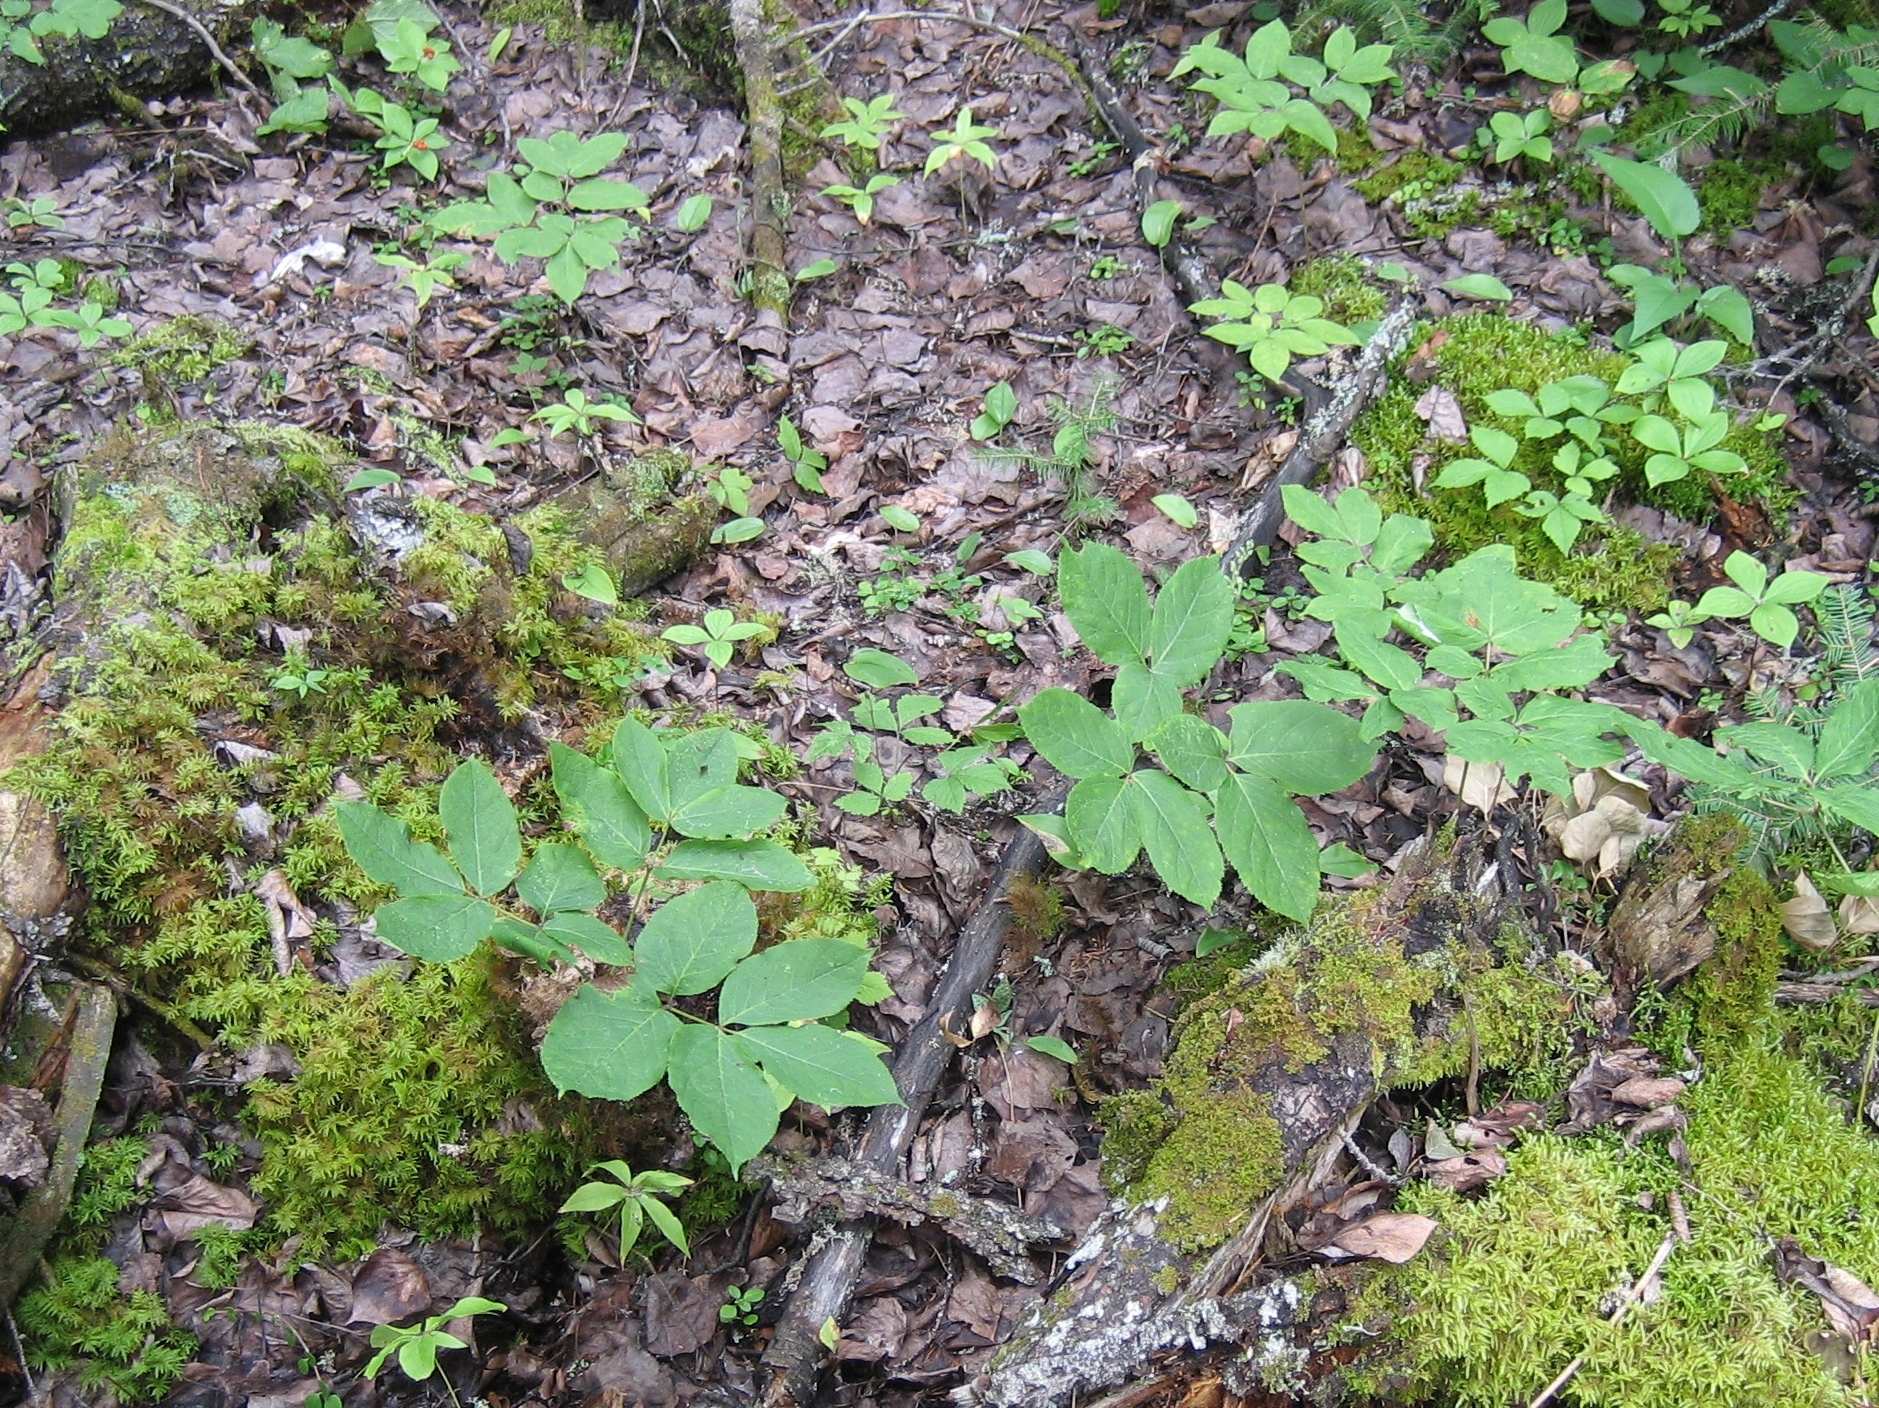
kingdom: Plantae
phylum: Tracheophyta
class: Magnoliopsida
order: Apiales
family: Araliaceae
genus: Aralia
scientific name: Aralia nudicaulis
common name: Wild sarsaparilla
